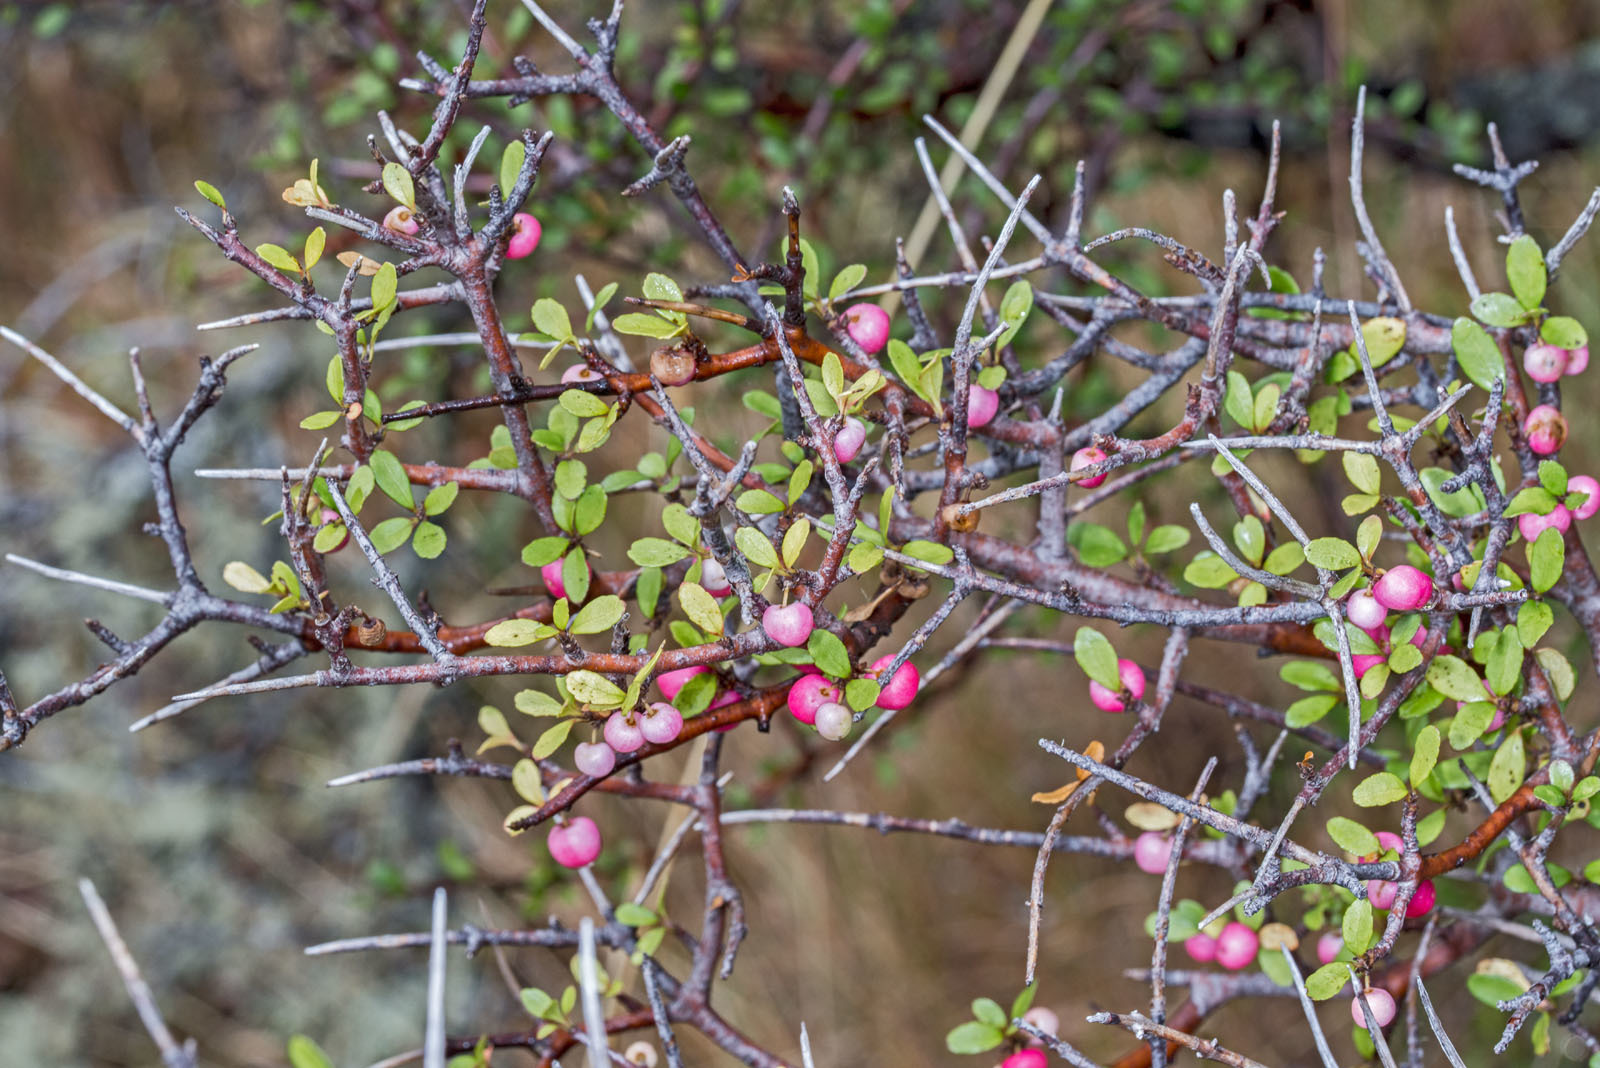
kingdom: Plantae
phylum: Tracheophyta
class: Magnoliopsida
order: Oxalidales
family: Elaeocarpaceae
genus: Aristotelia
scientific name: Aristotelia fruticosa
